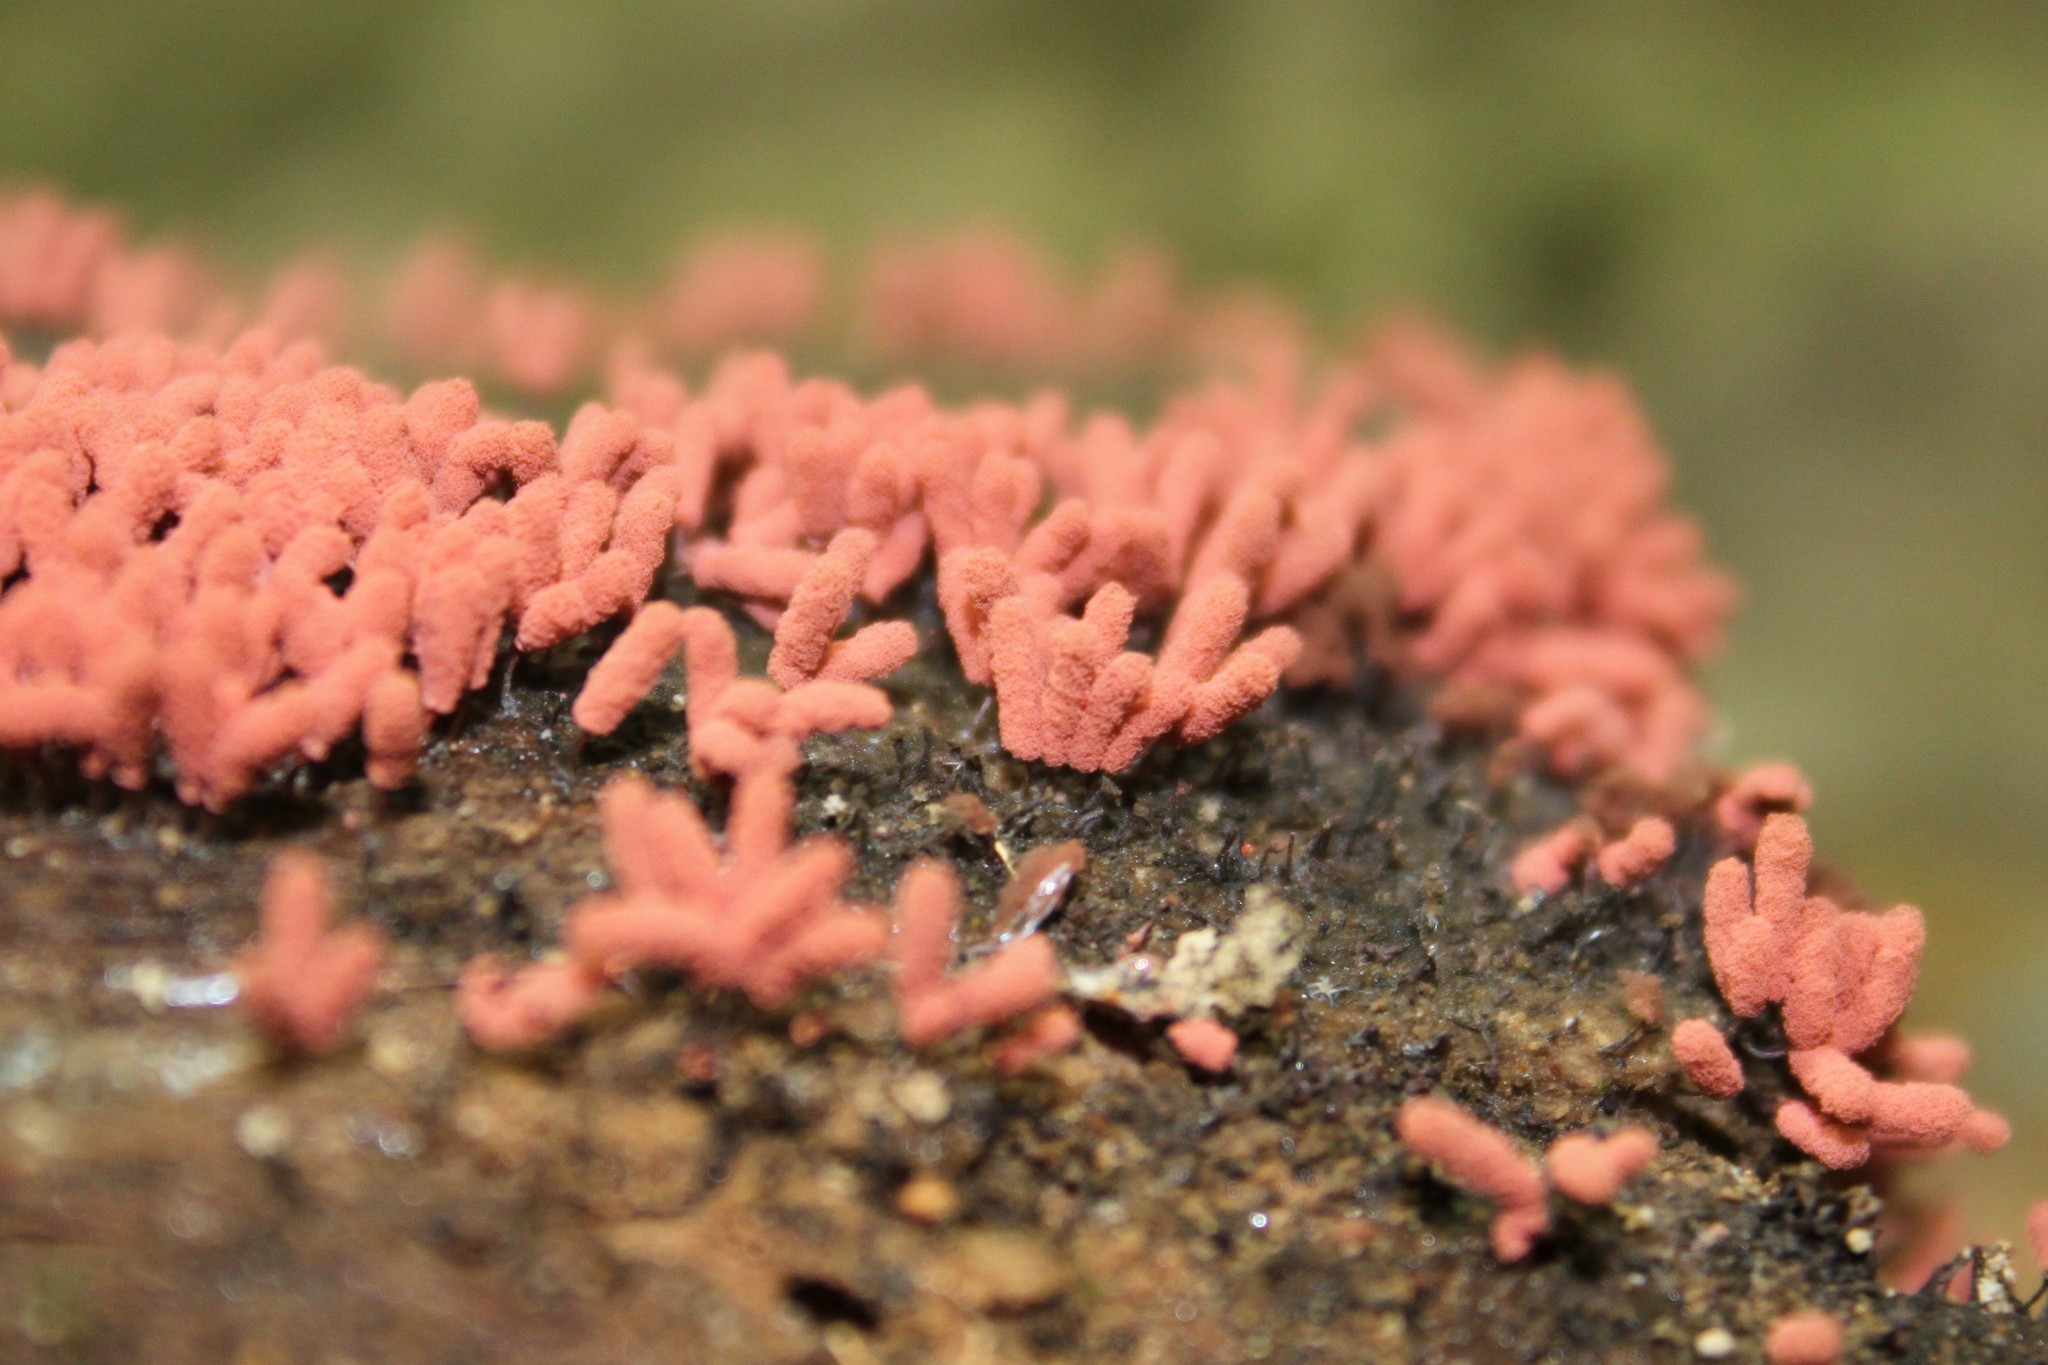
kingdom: Protozoa
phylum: Mycetozoa
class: Myxomycetes
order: Trichiales
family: Arcyriaceae
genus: Arcyria
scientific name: Arcyria denudata
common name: Carnival candy slime mold
